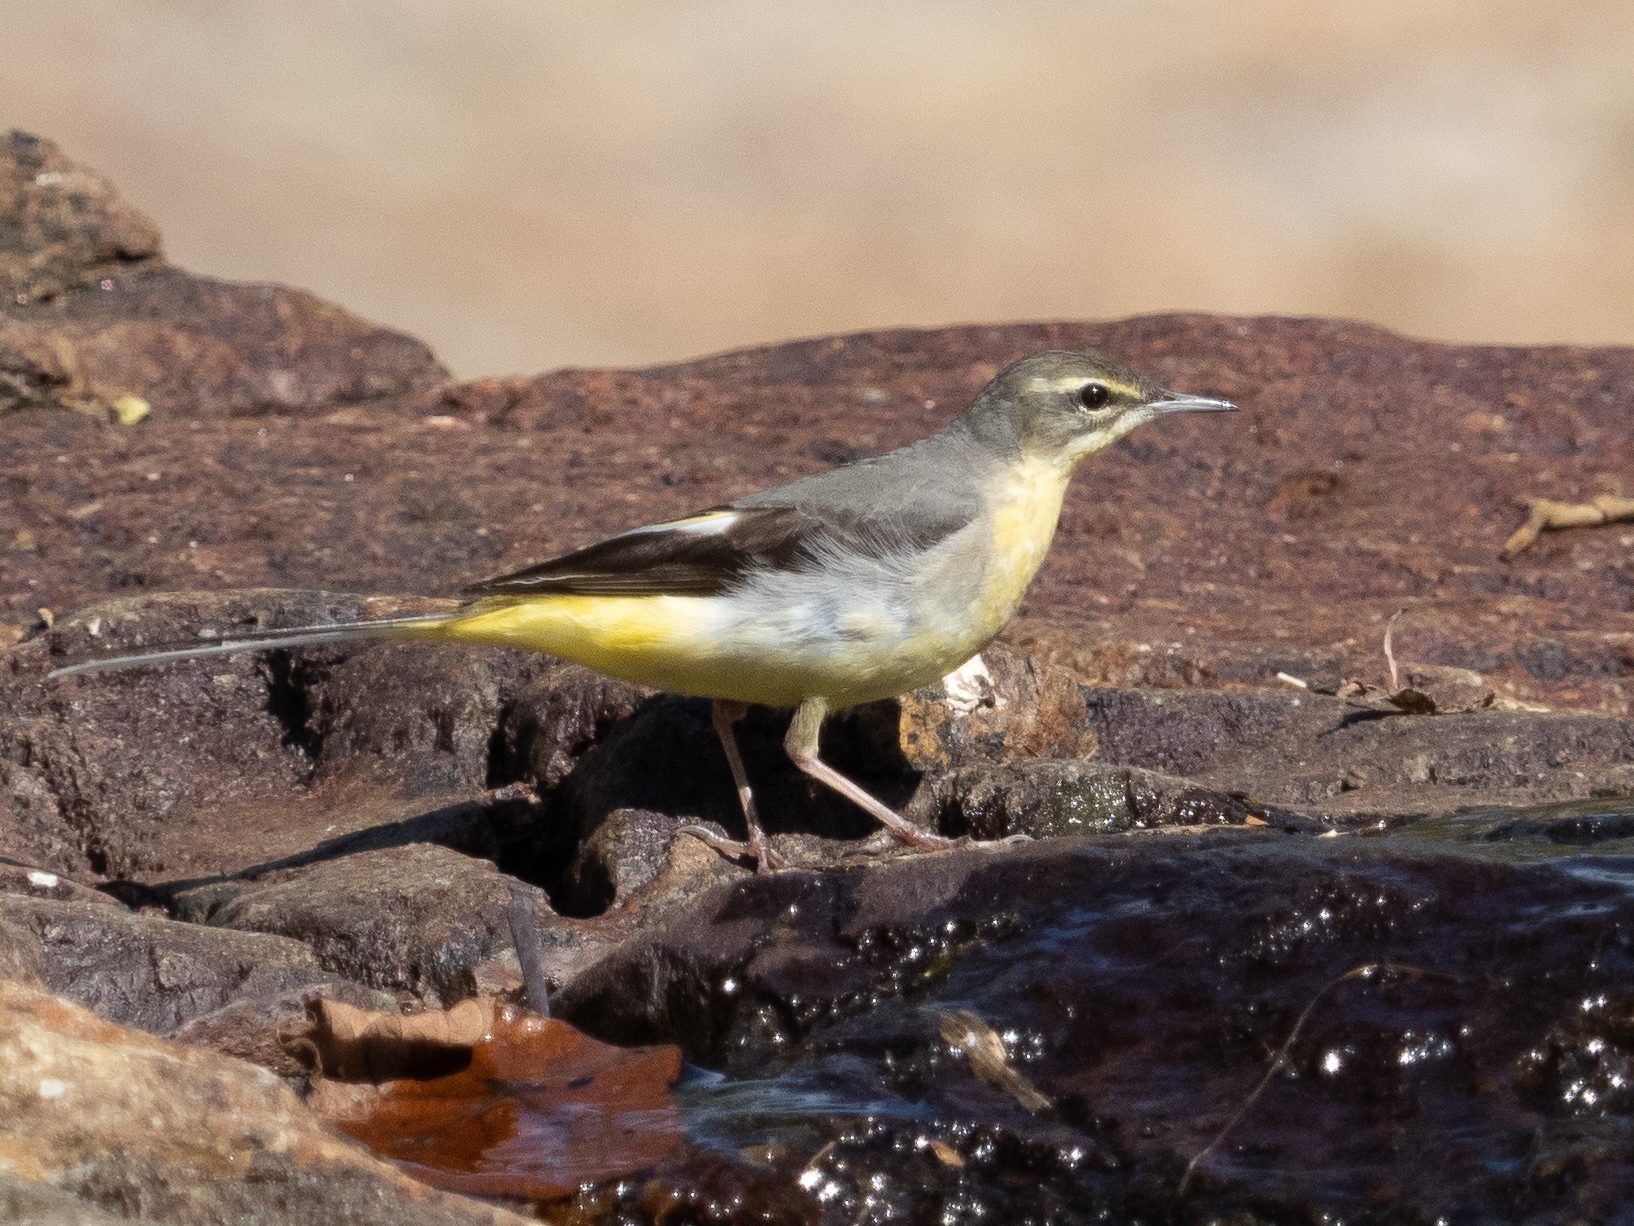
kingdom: Animalia
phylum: Chordata
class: Aves
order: Passeriformes
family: Motacillidae
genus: Motacilla
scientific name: Motacilla cinerea
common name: Grey wagtail
